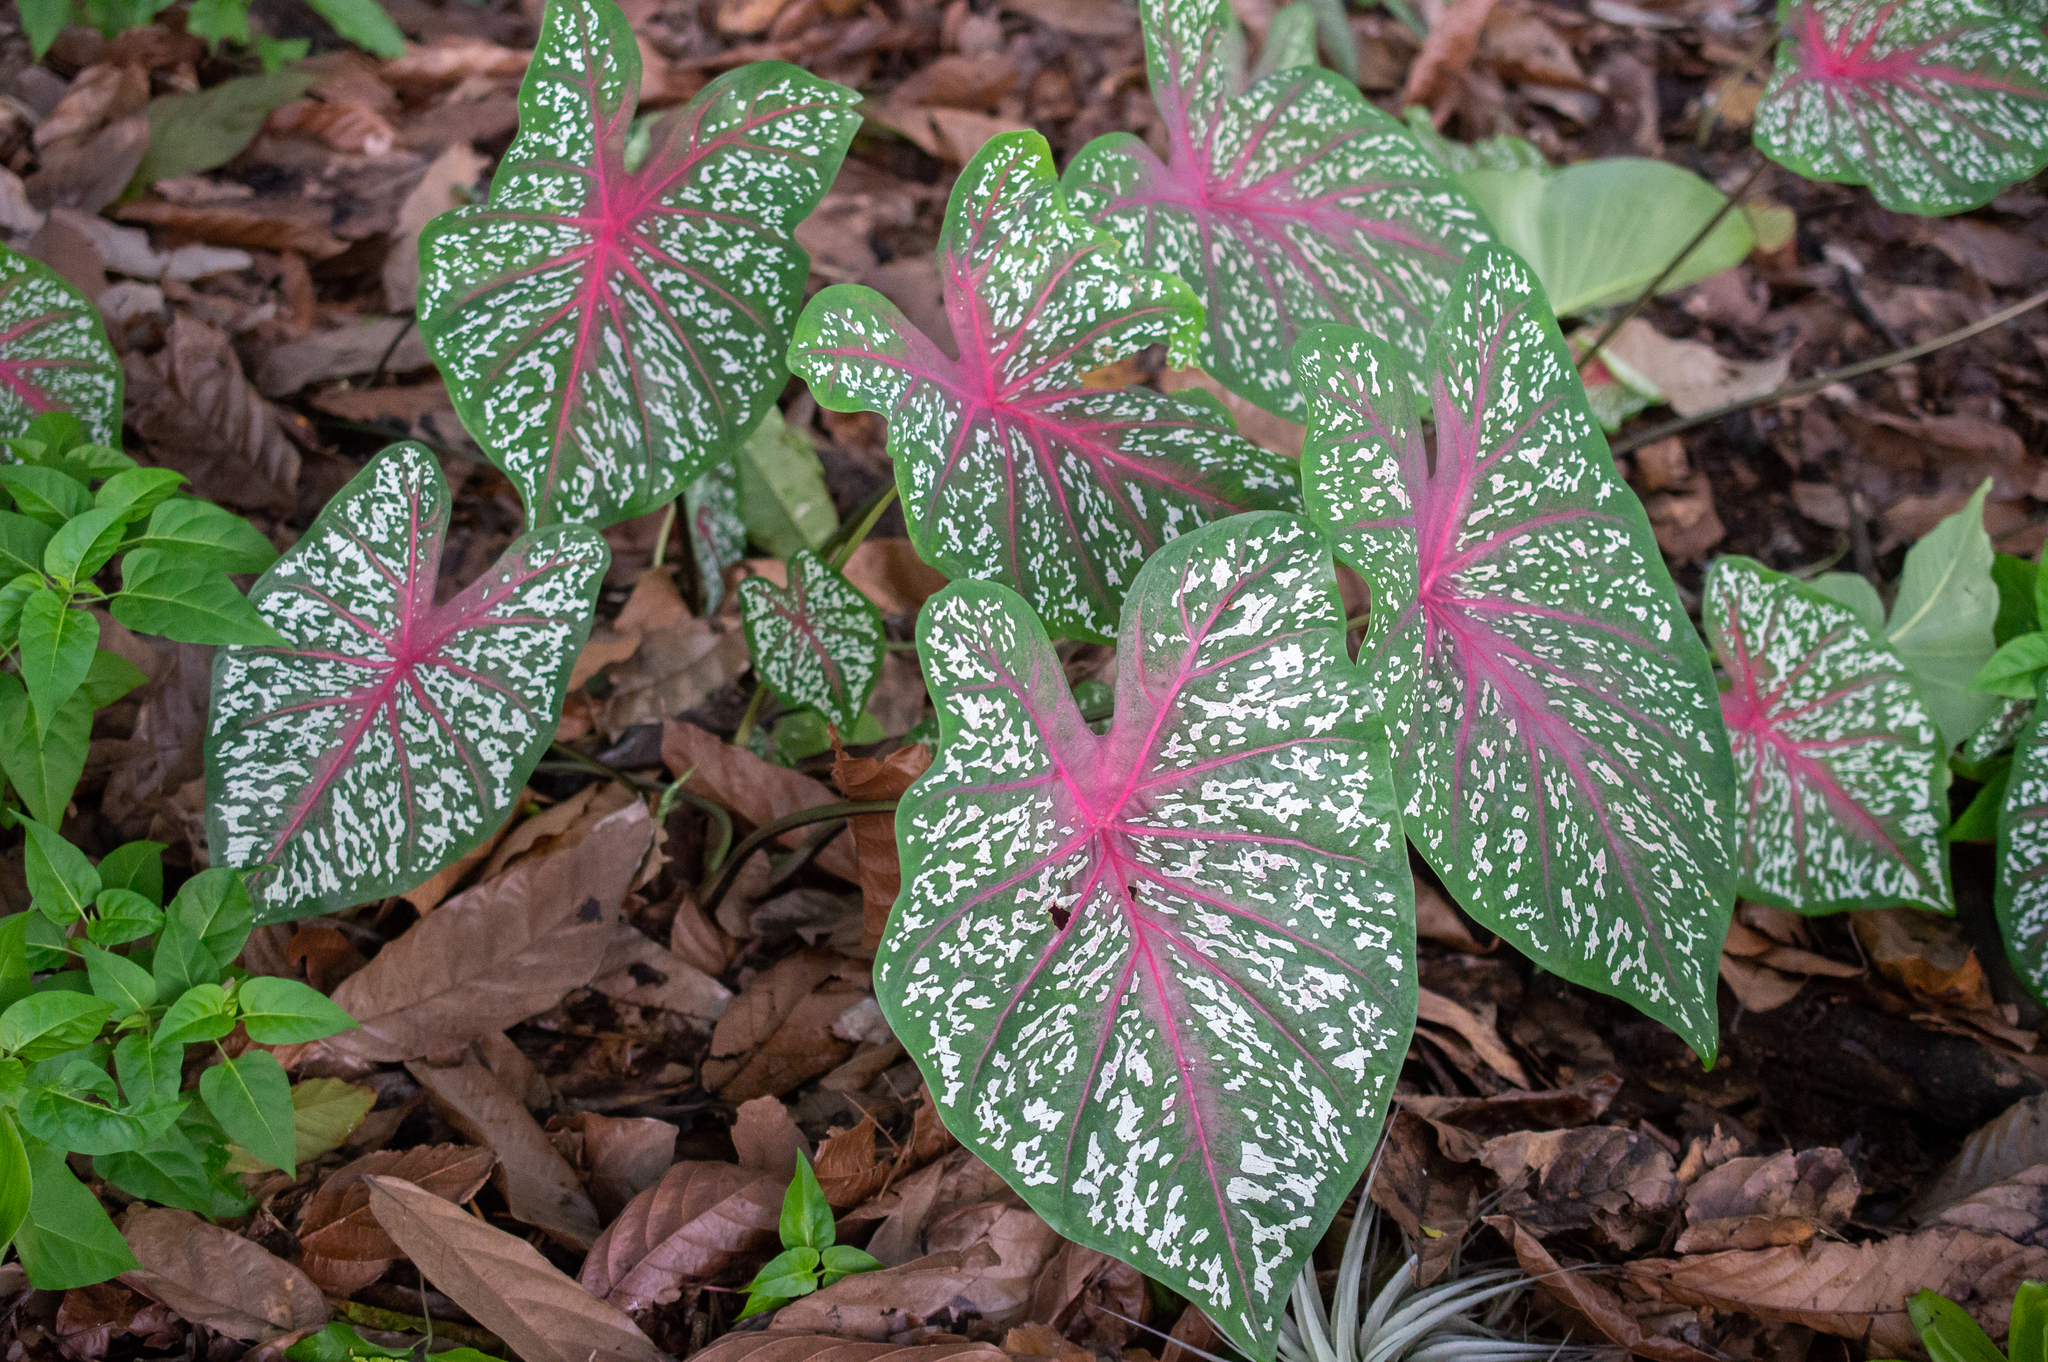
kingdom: Plantae
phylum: Tracheophyta
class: Liliopsida
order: Alismatales
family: Araceae
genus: Caladium
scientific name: Caladium bicolor
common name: Artist's pallet
